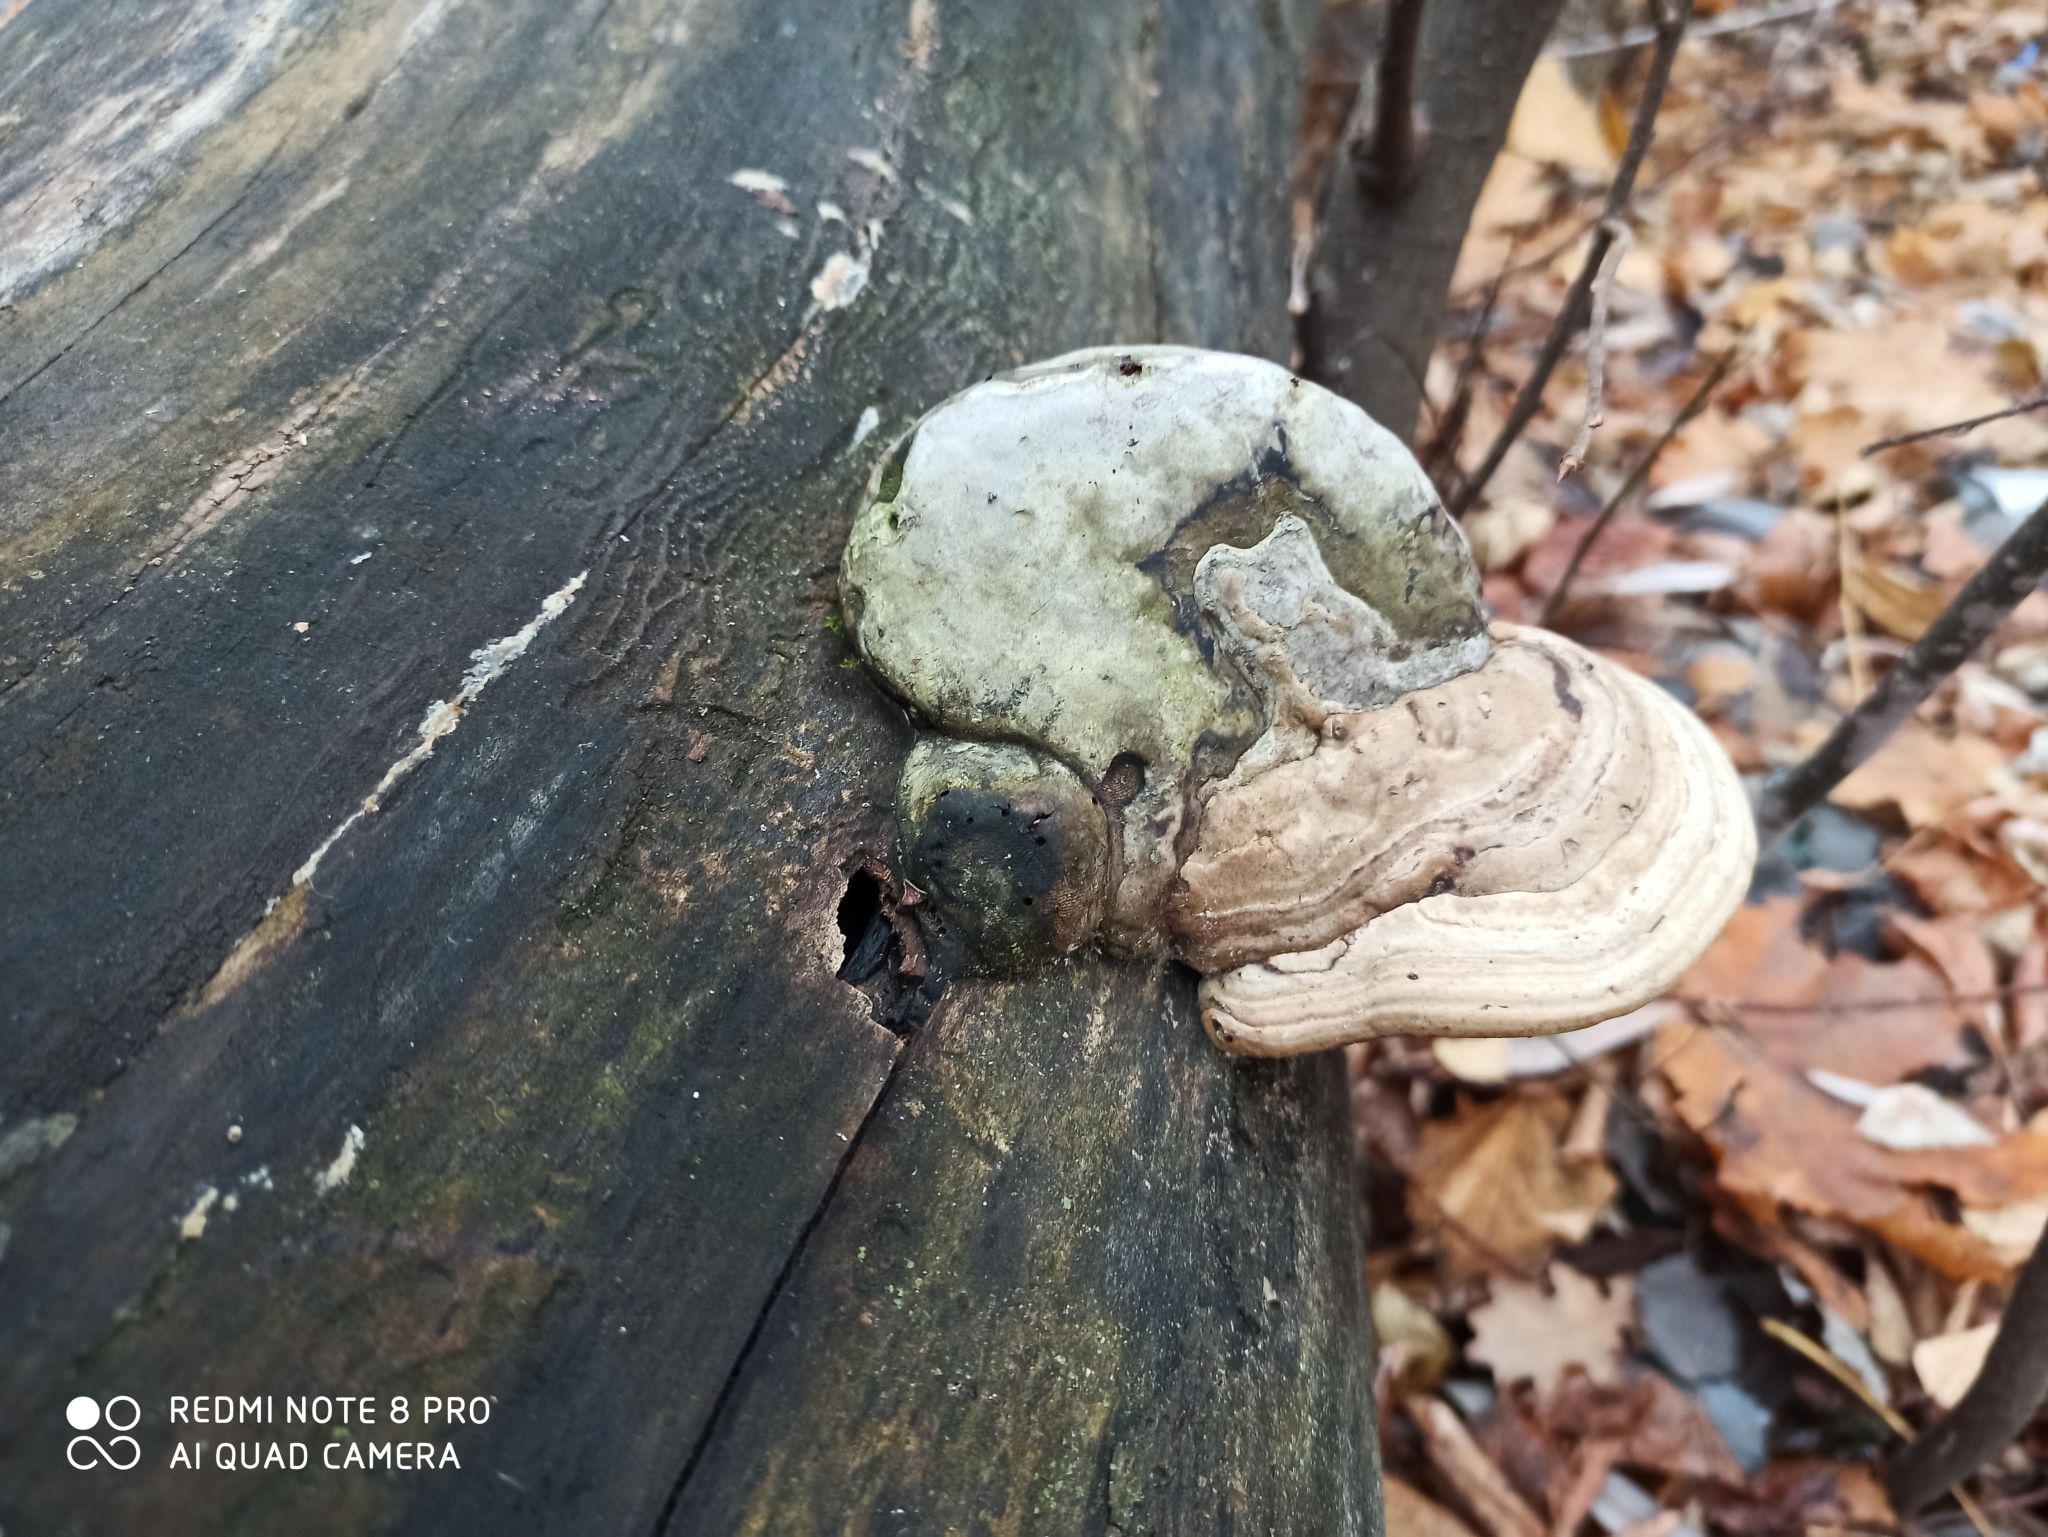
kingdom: Fungi
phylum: Basidiomycota
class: Agaricomycetes
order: Polyporales
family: Polyporaceae
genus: Fomes
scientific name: Fomes fomentarius
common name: Hoof fungus
